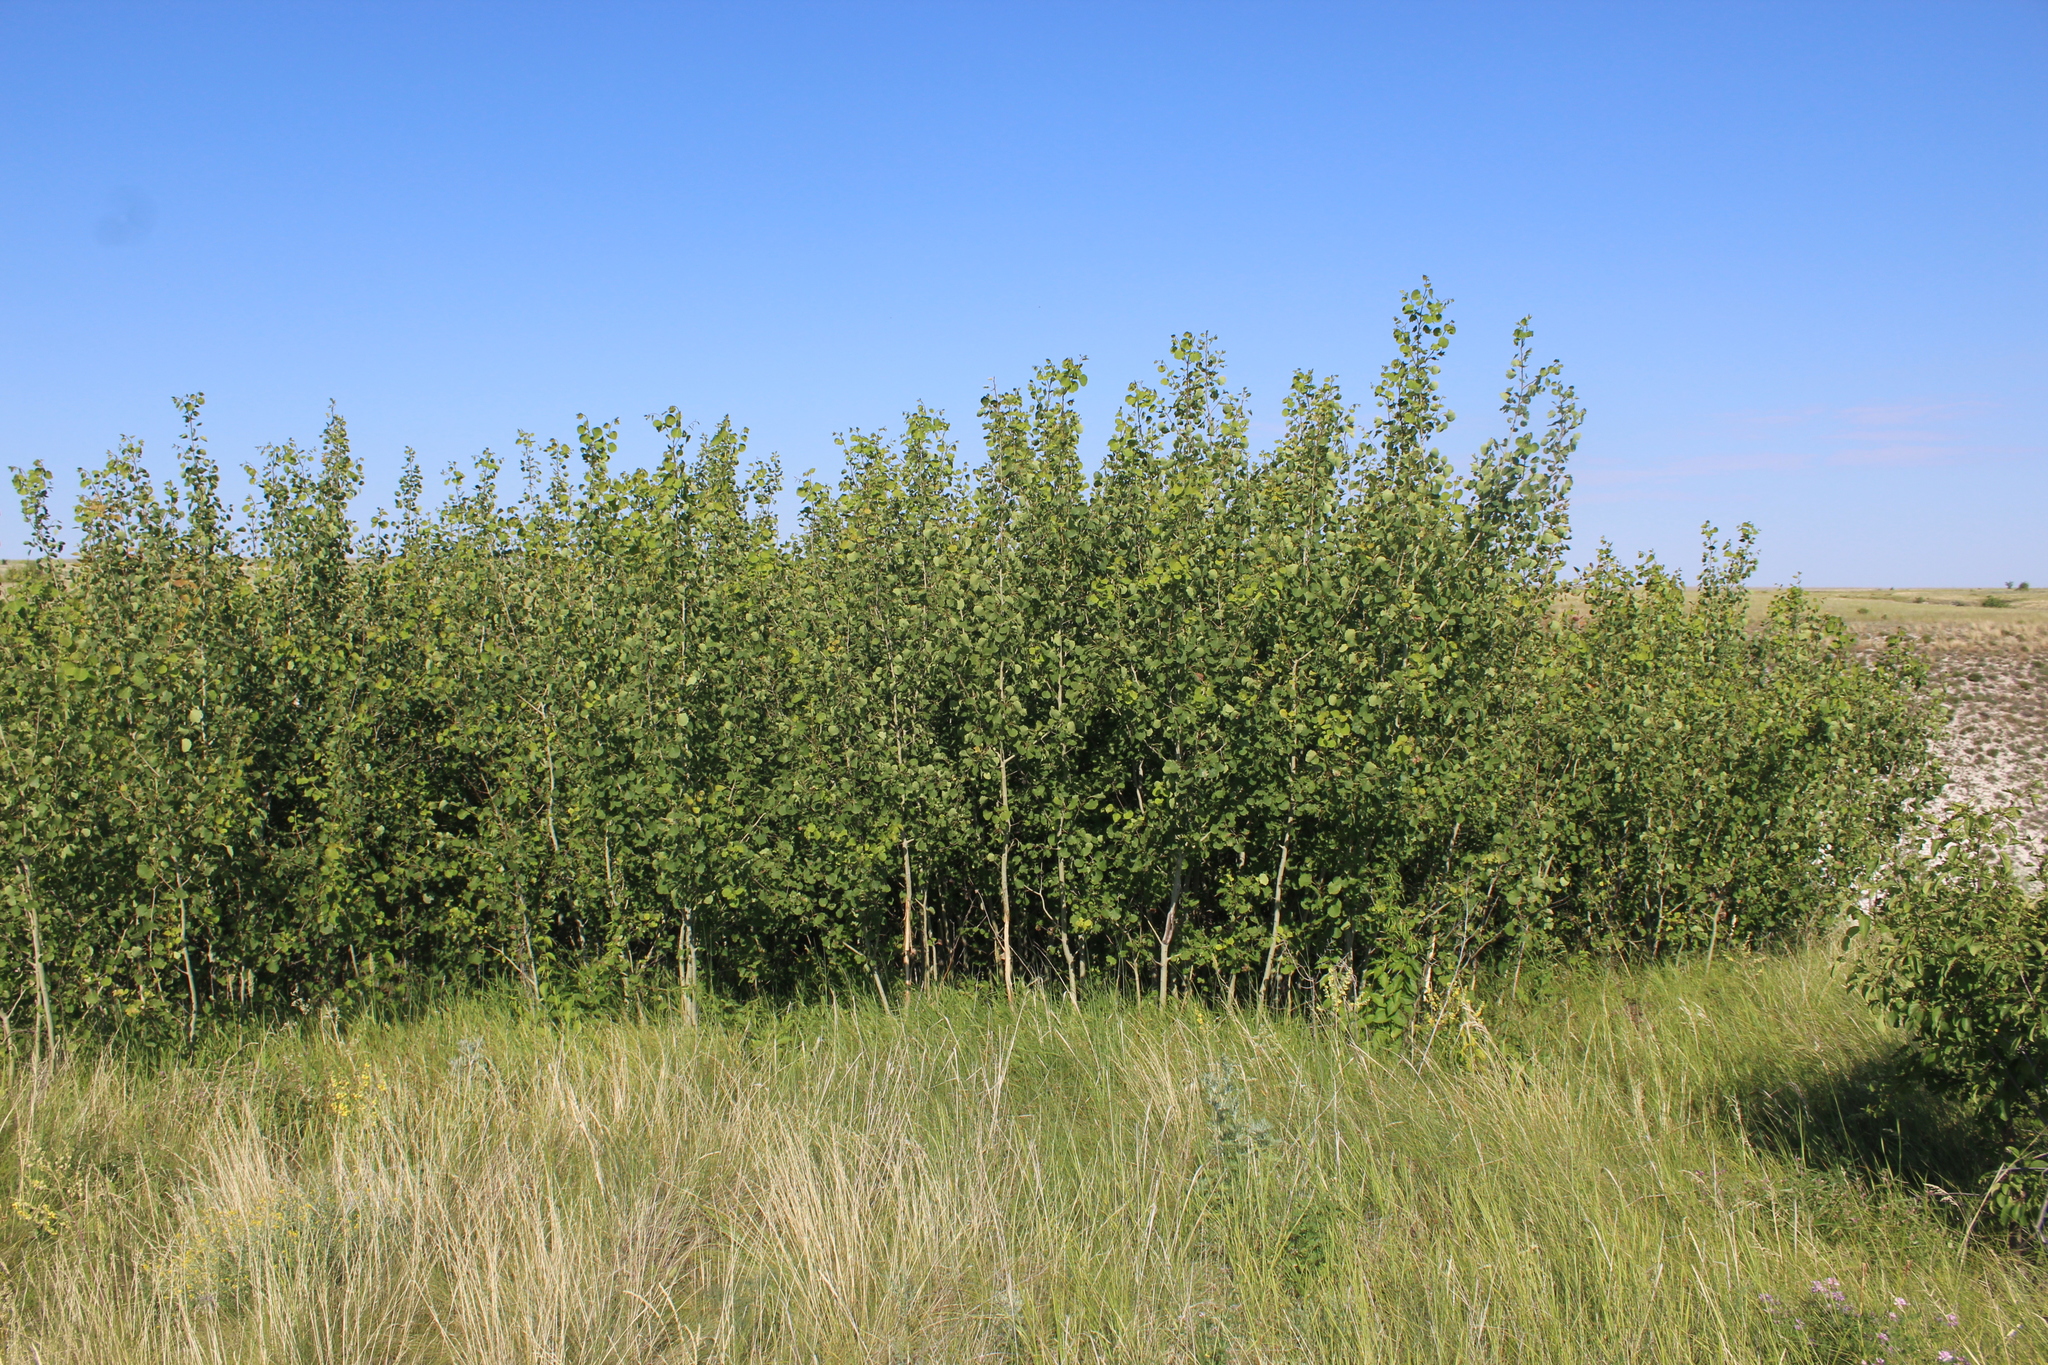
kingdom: Plantae
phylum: Tracheophyta
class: Magnoliopsida
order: Malpighiales
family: Salicaceae
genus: Populus
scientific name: Populus tremula
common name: European aspen
